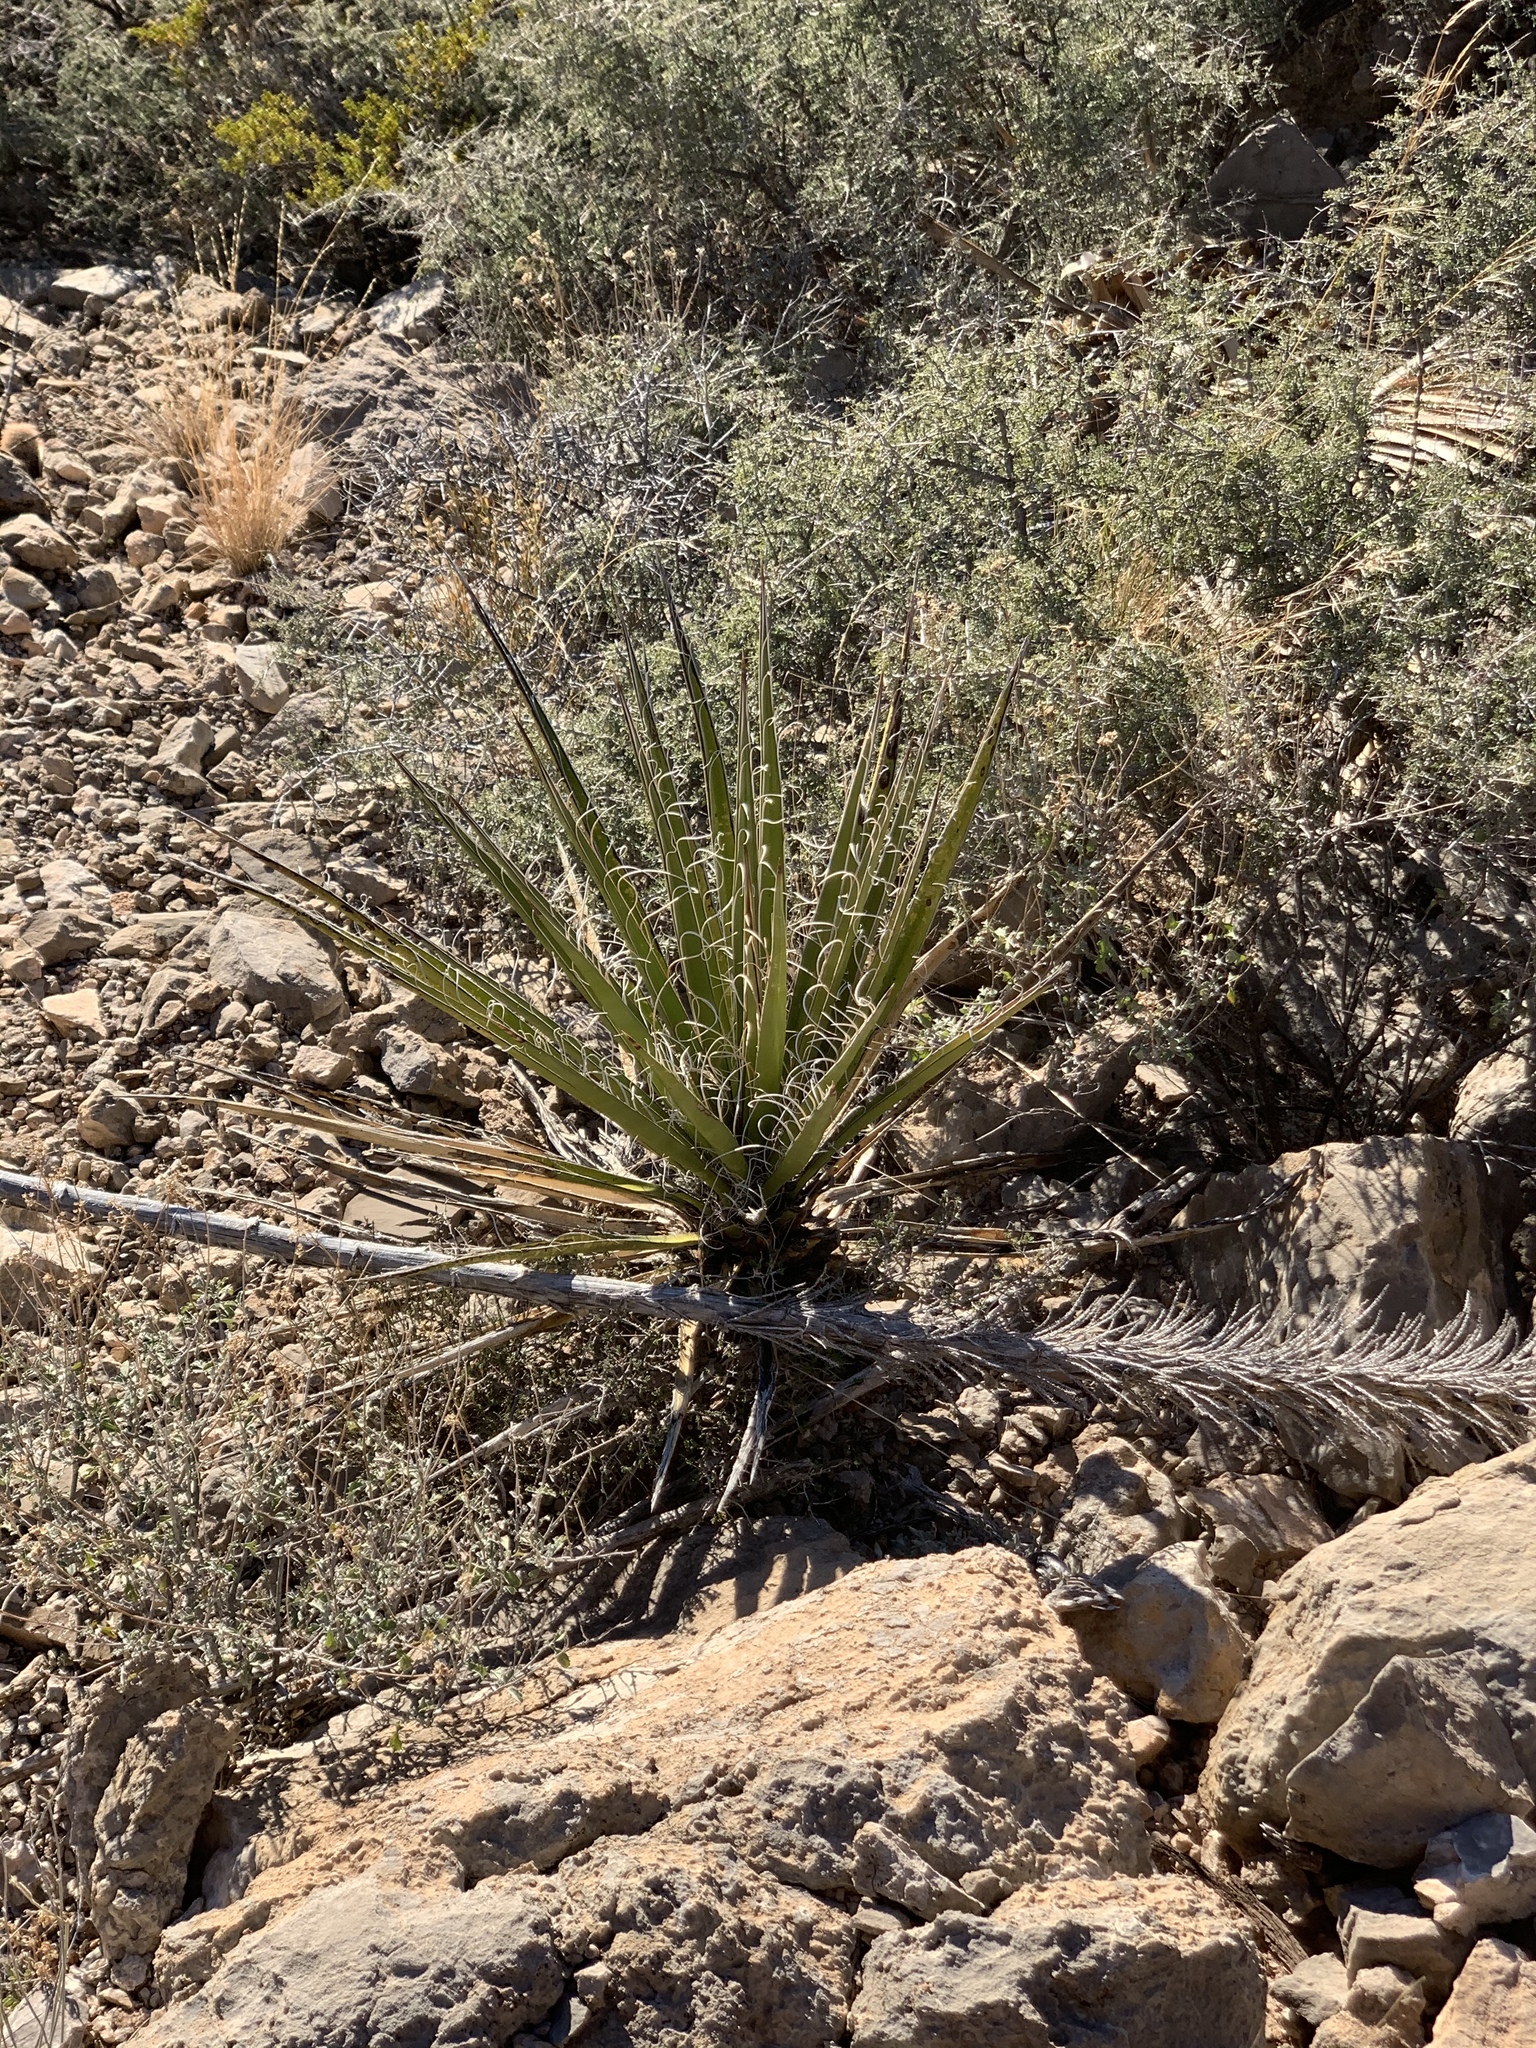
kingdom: Plantae
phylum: Tracheophyta
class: Liliopsida
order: Asparagales
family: Asparagaceae
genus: Yucca
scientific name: Yucca treculiana
